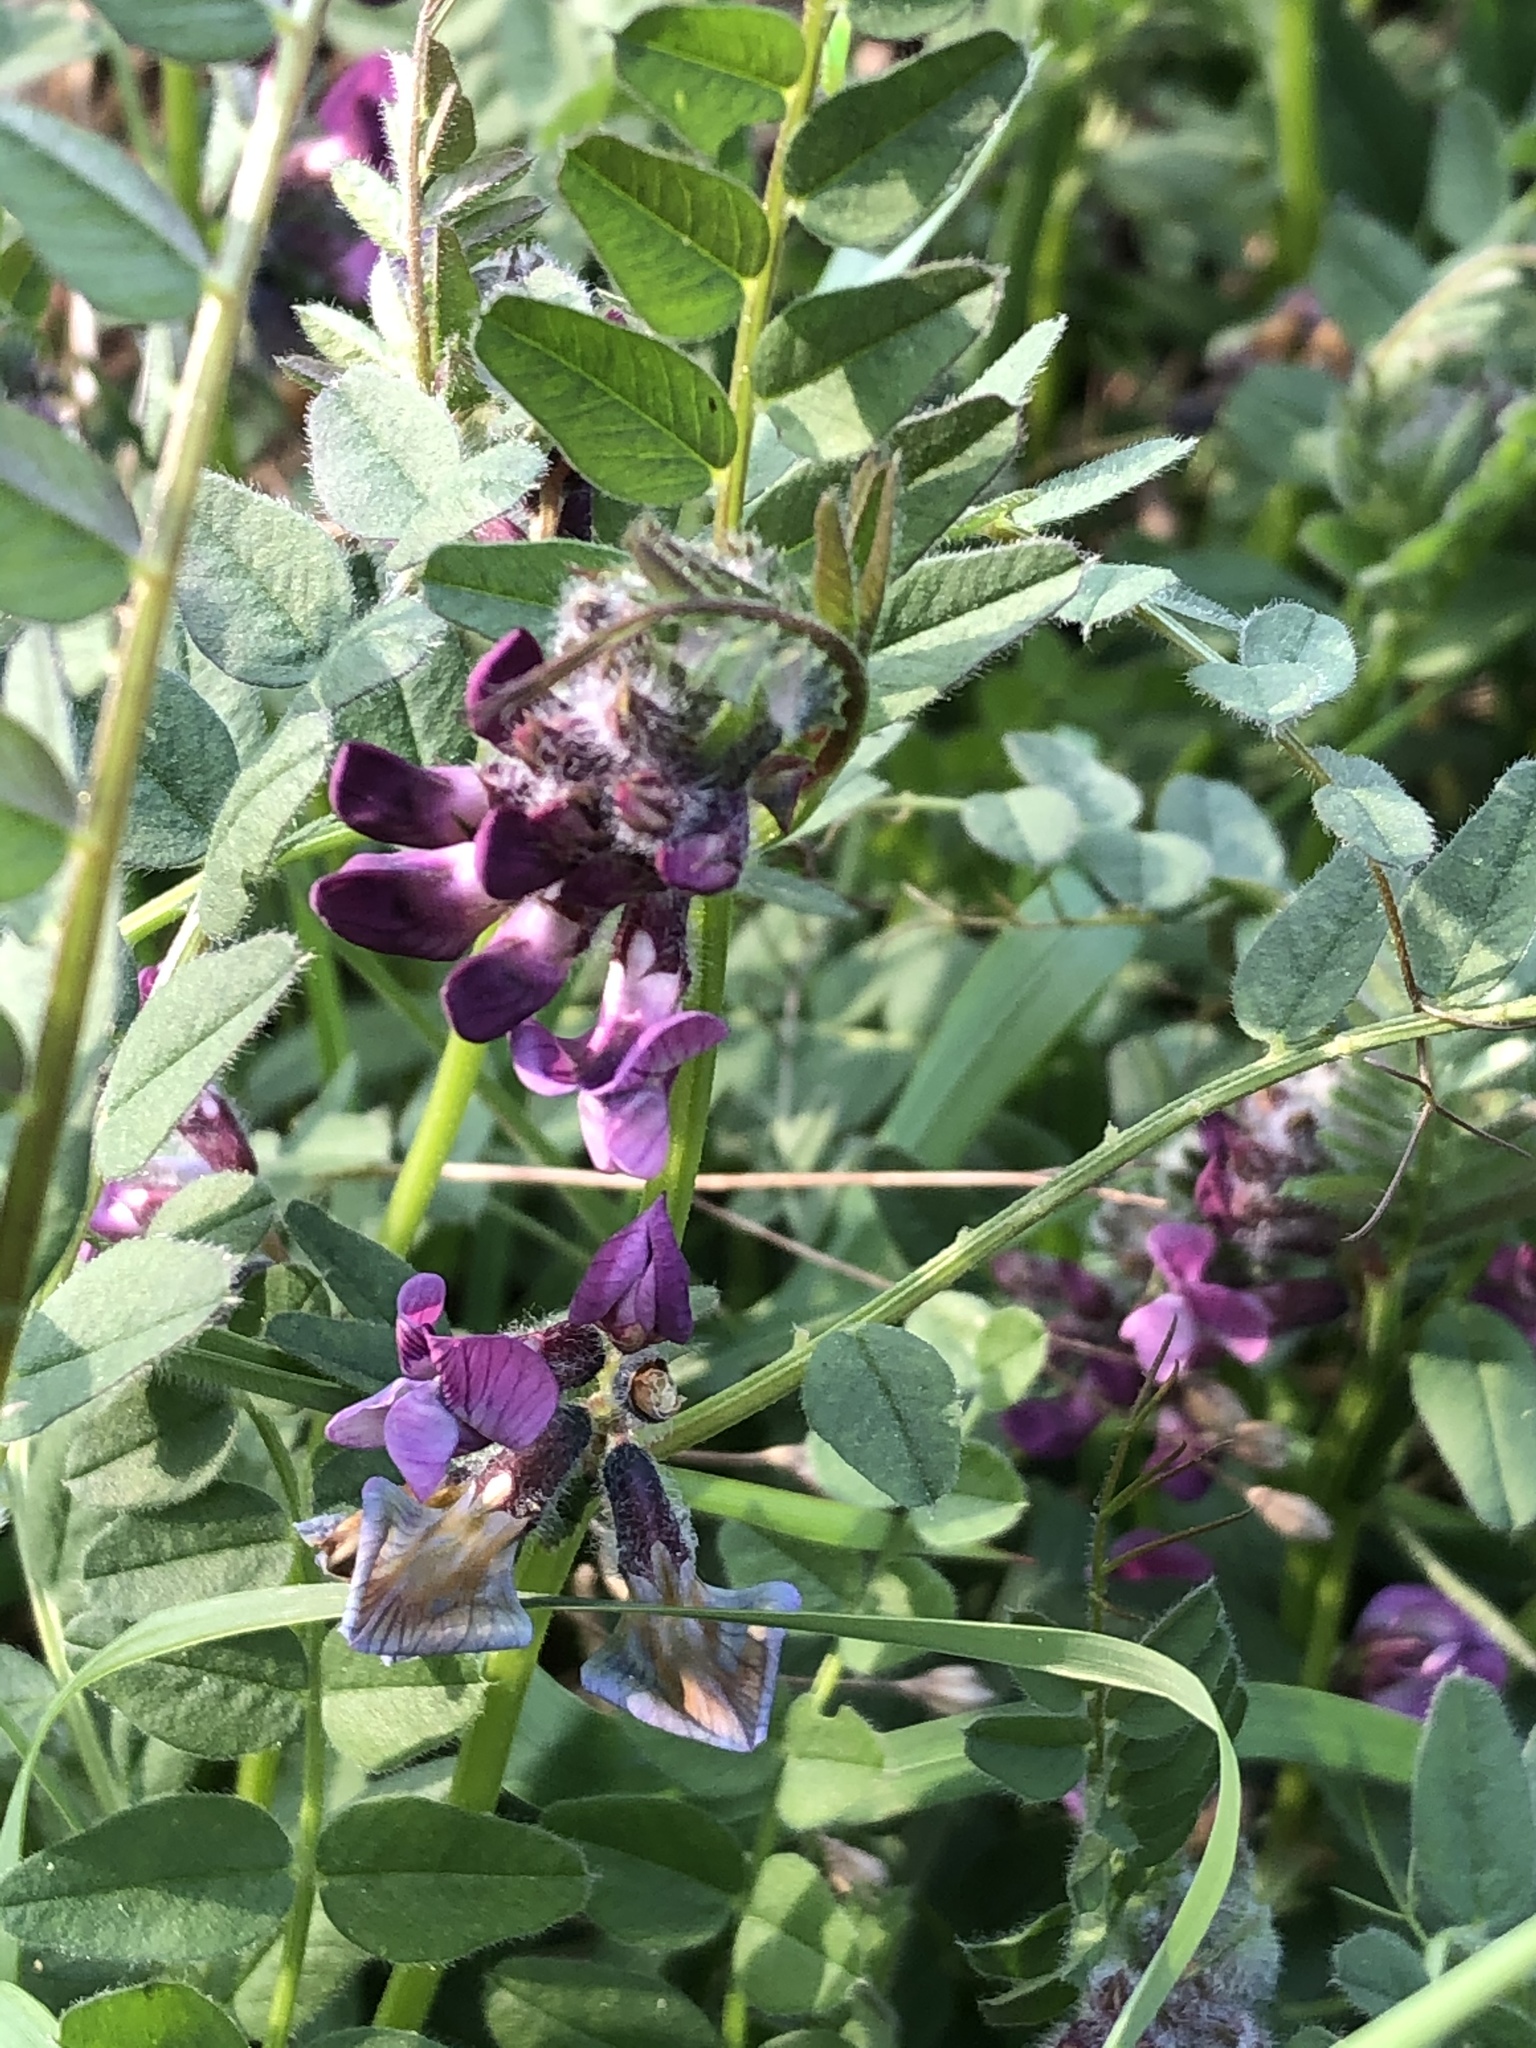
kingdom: Plantae
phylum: Tracheophyta
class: Magnoliopsida
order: Fabales
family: Fabaceae
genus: Vicia
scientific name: Vicia sepium
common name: Bush vetch
